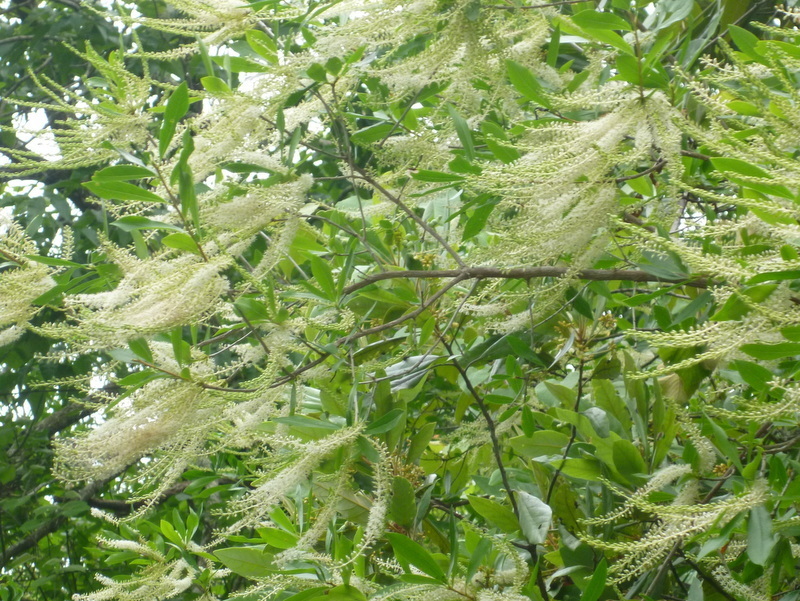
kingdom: Plantae
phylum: Tracheophyta
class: Magnoliopsida
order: Ericales
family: Cyrillaceae
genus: Cyrilla
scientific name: Cyrilla racemiflora
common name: Black titi
